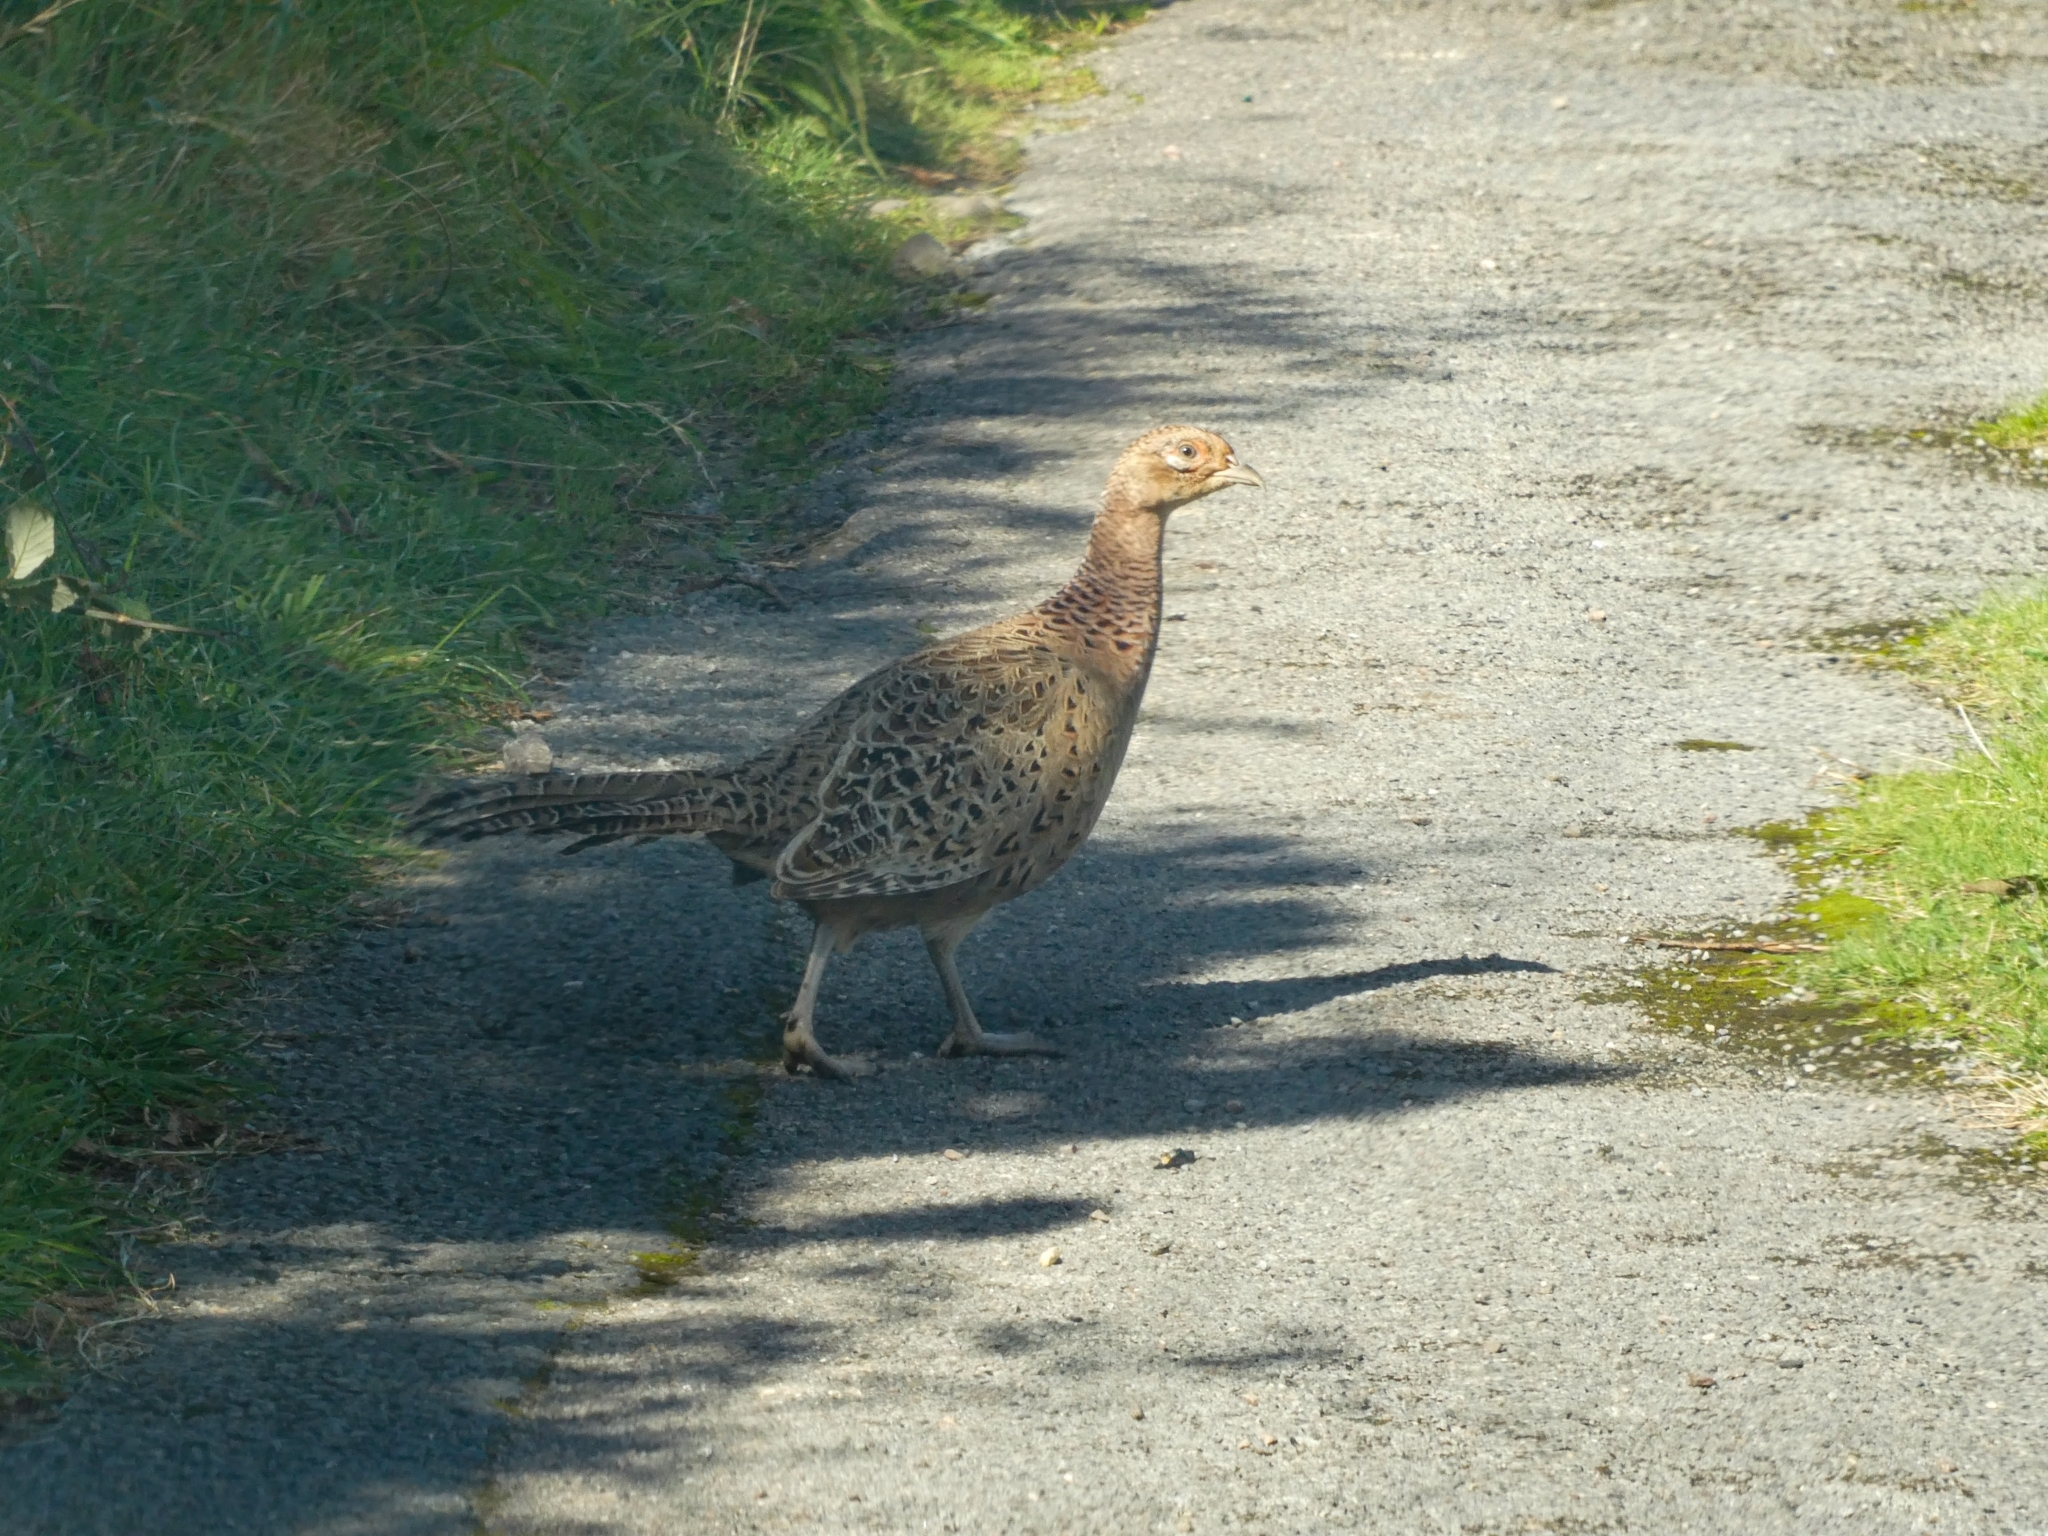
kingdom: Animalia
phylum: Chordata
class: Aves
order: Galliformes
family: Phasianidae
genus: Phasianus
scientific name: Phasianus colchicus
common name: Common pheasant
